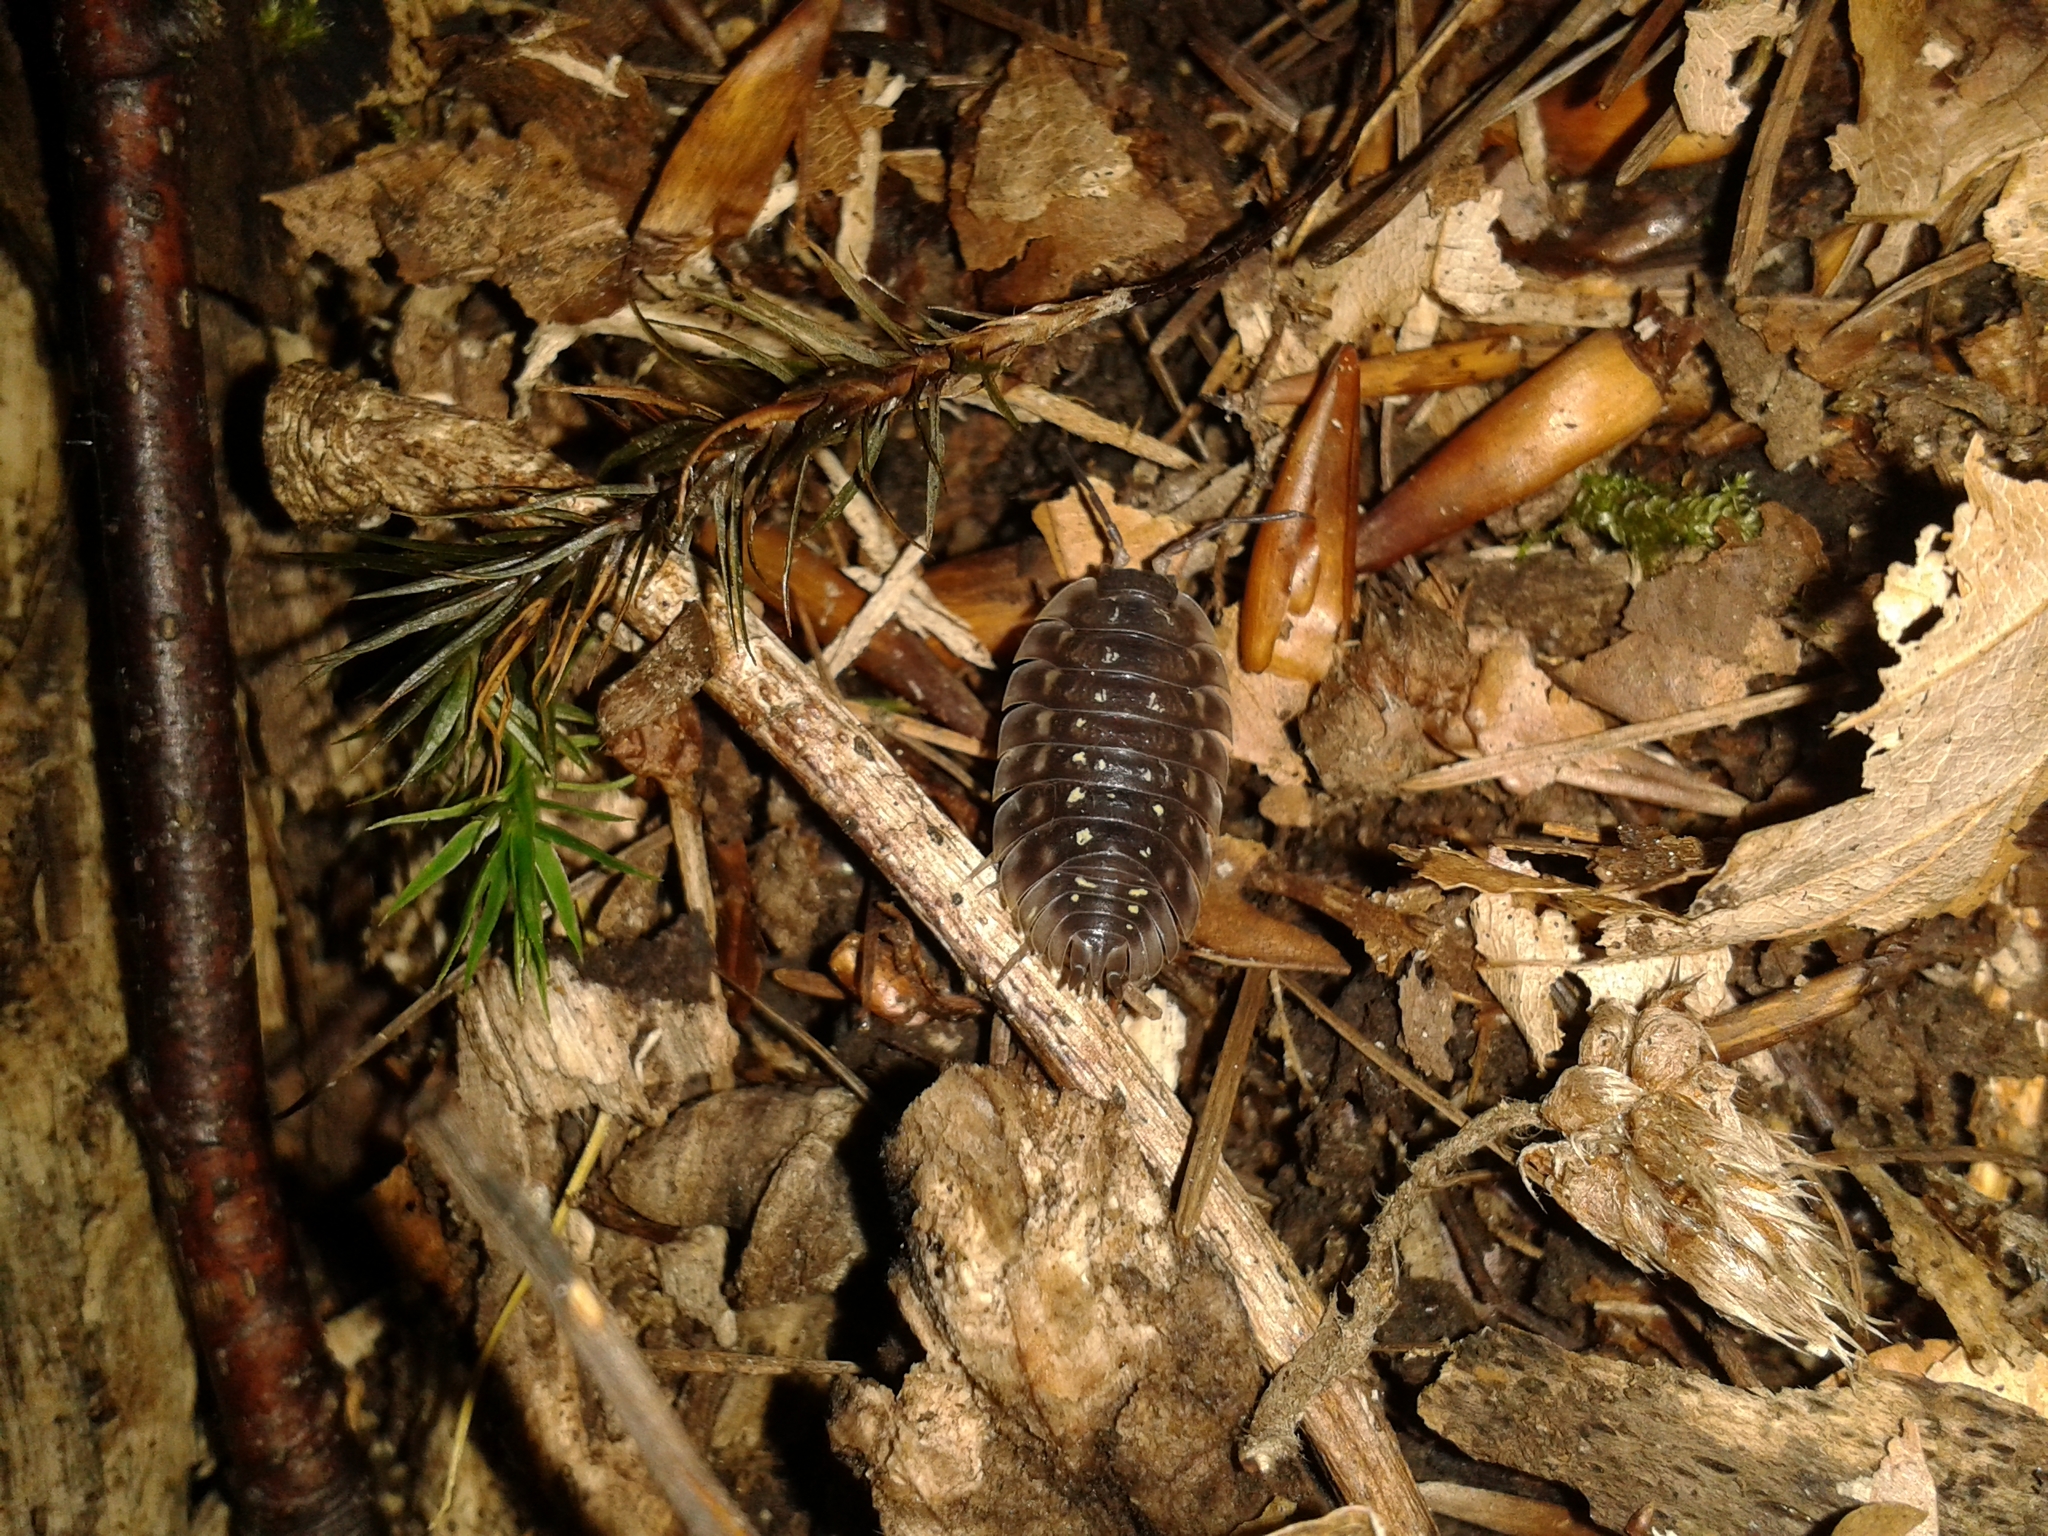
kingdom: Animalia
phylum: Arthropoda
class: Malacostraca
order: Isopoda
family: Oniscidae
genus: Oniscus
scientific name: Oniscus asellus
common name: Common shiny woodlouse
